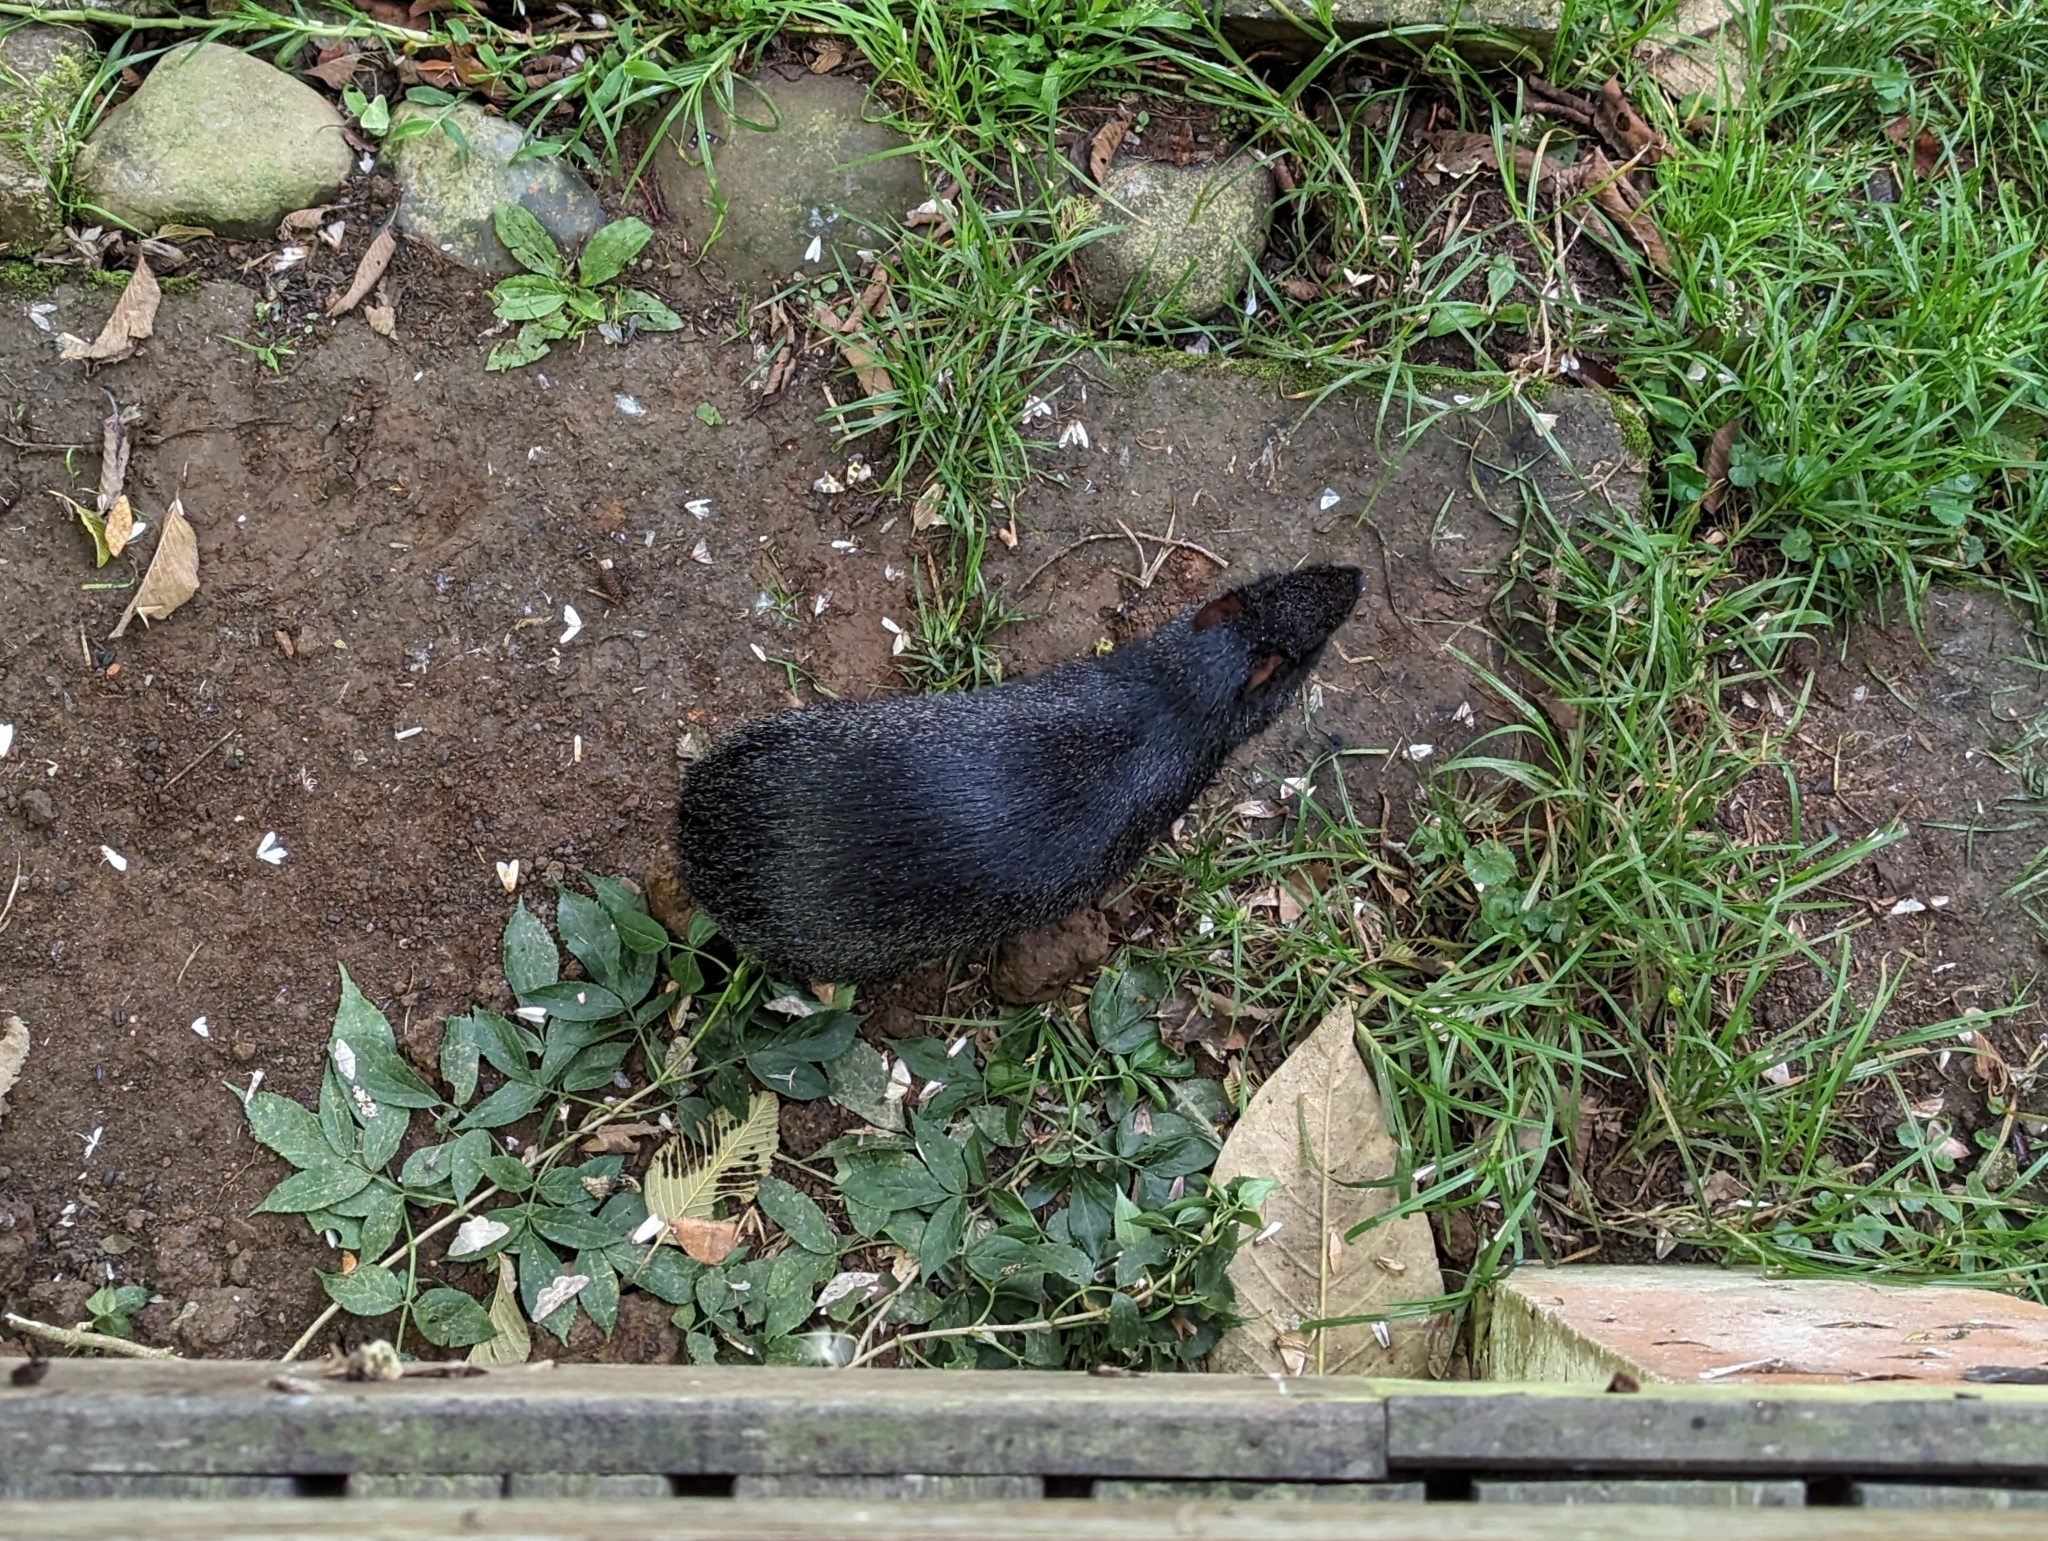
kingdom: Animalia
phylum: Chordata
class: Mammalia
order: Rodentia
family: Dasyproctidae
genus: Dasyprocta
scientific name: Dasyprocta fuliginosa
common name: Black agouti
